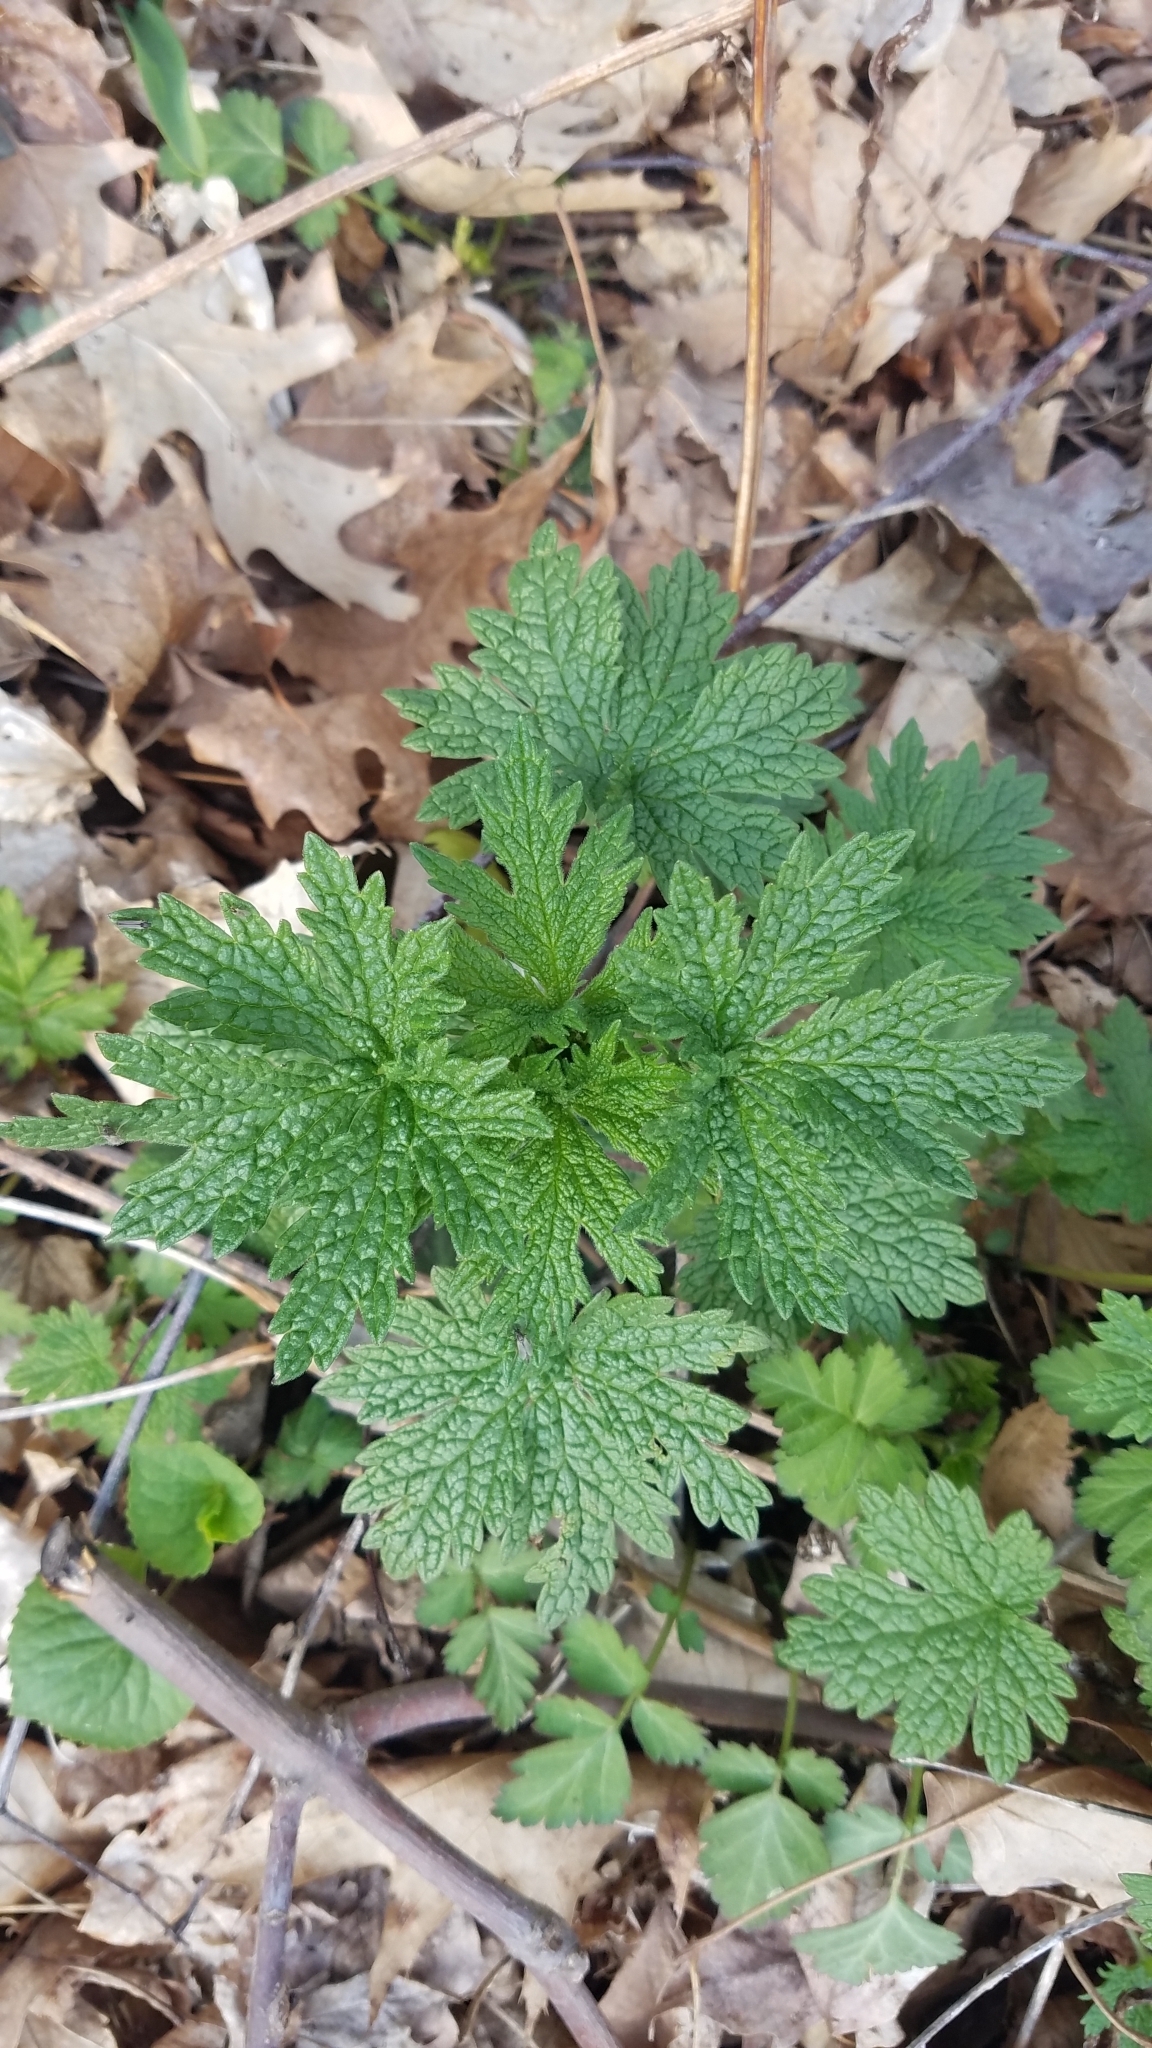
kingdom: Plantae
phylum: Tracheophyta
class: Magnoliopsida
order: Lamiales
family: Lamiaceae
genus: Leonurus
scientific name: Leonurus cardiaca
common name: Motherwort
